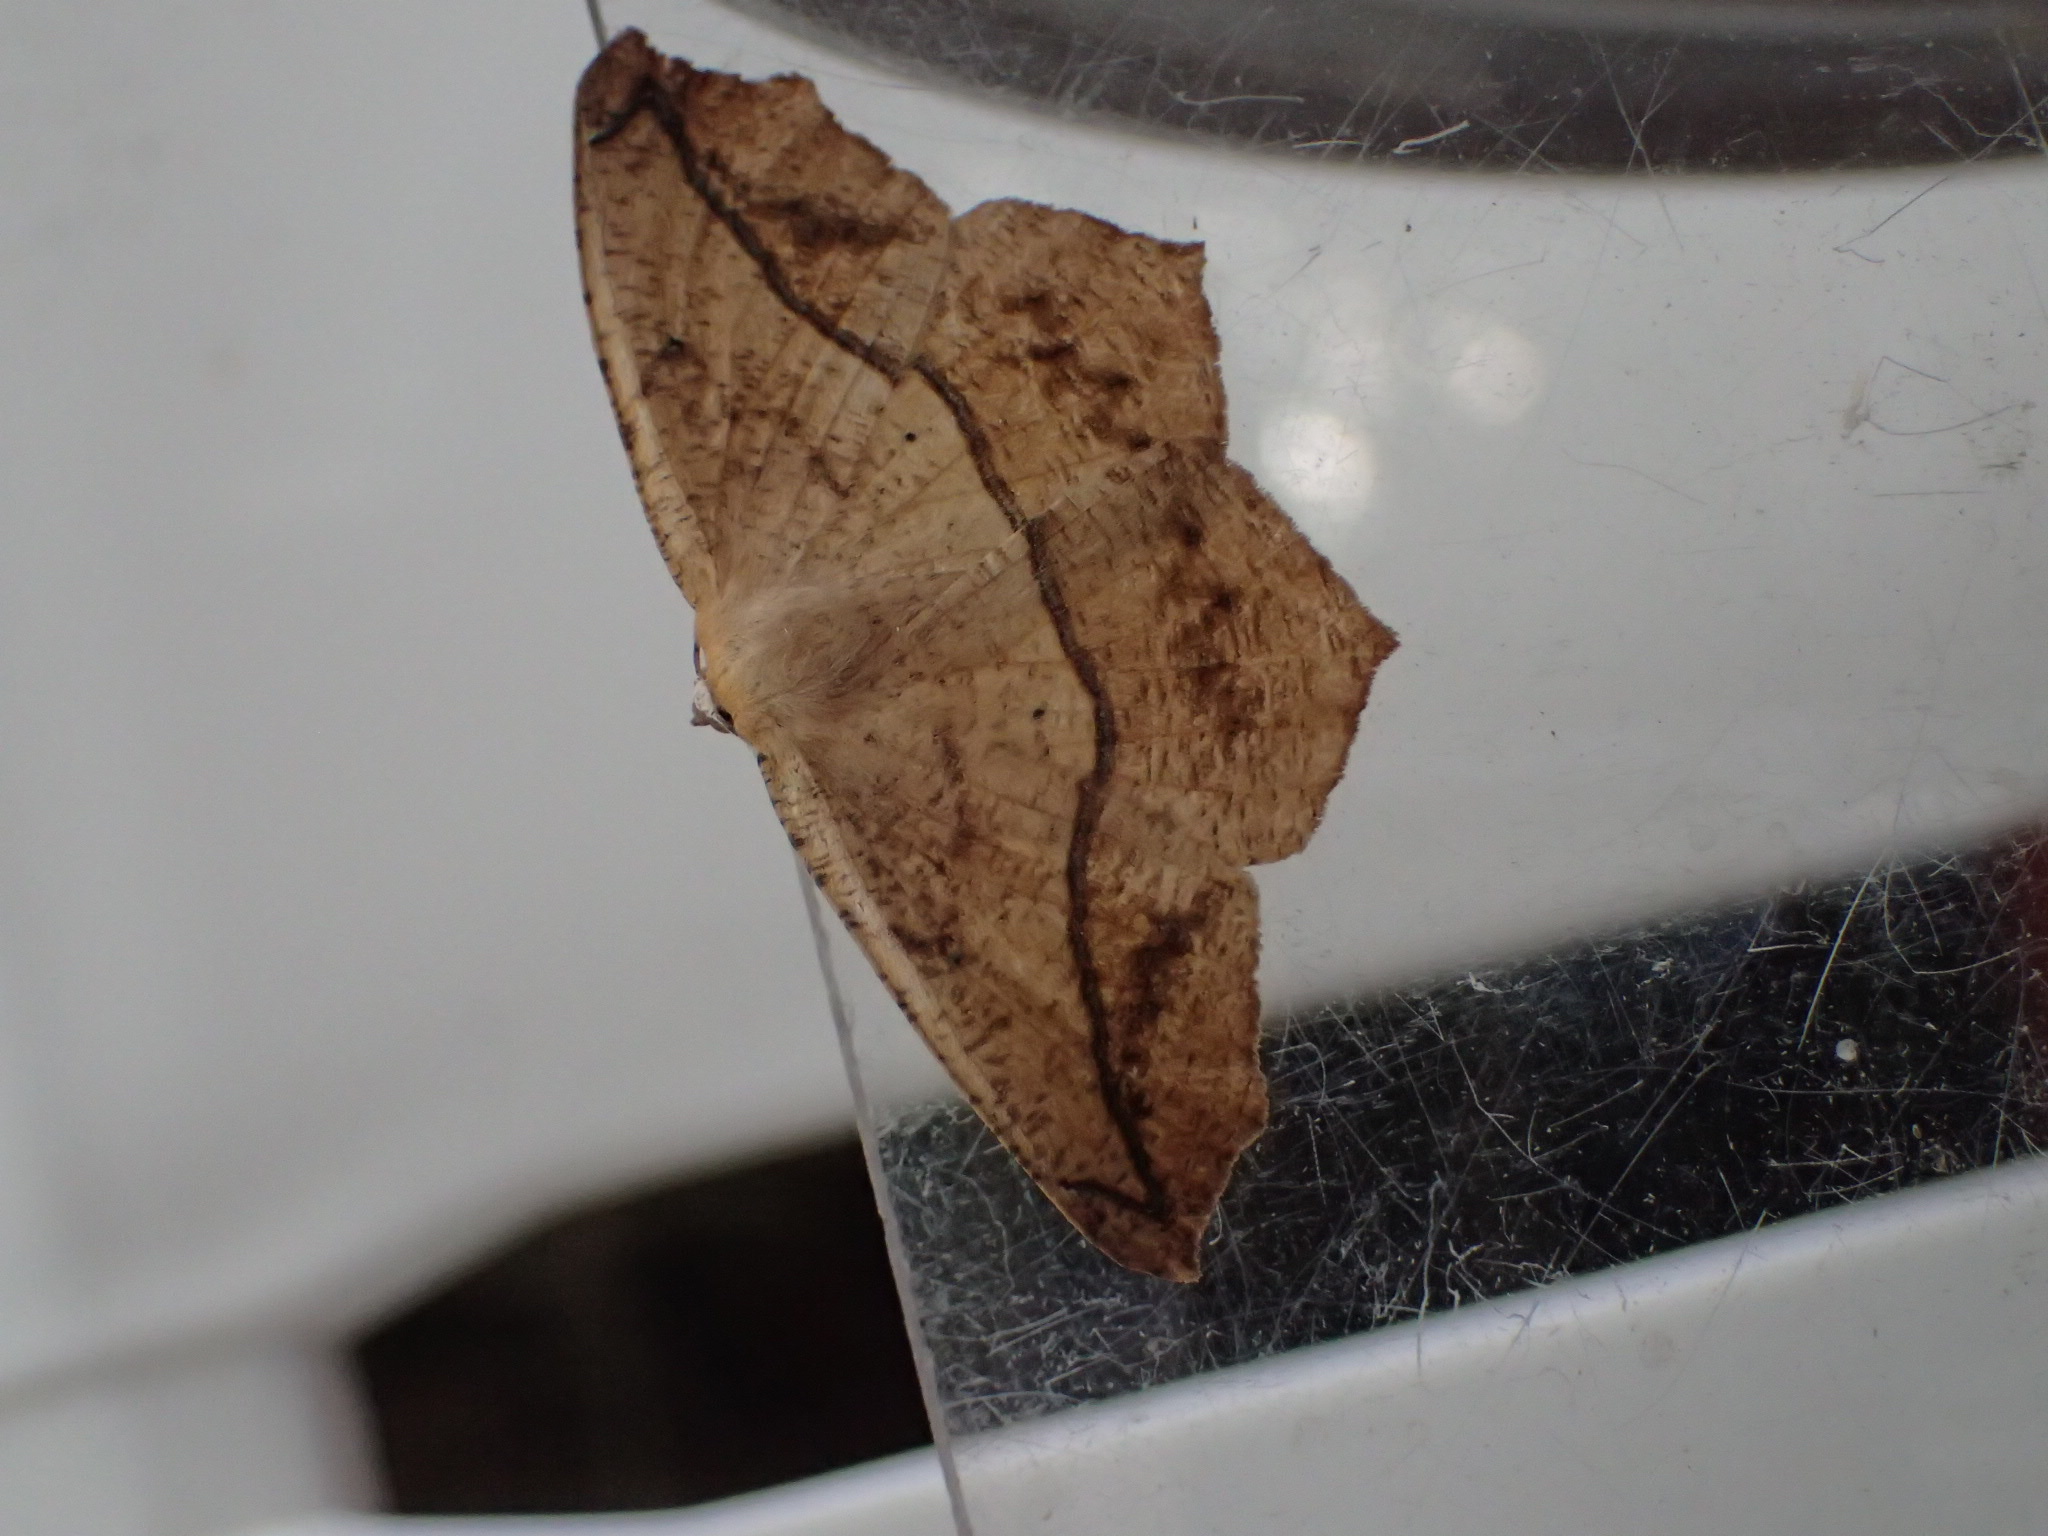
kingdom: Animalia
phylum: Arthropoda
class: Insecta
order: Lepidoptera
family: Geometridae
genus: Prochoerodes
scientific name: Prochoerodes lineola
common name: Large maple spanworm
